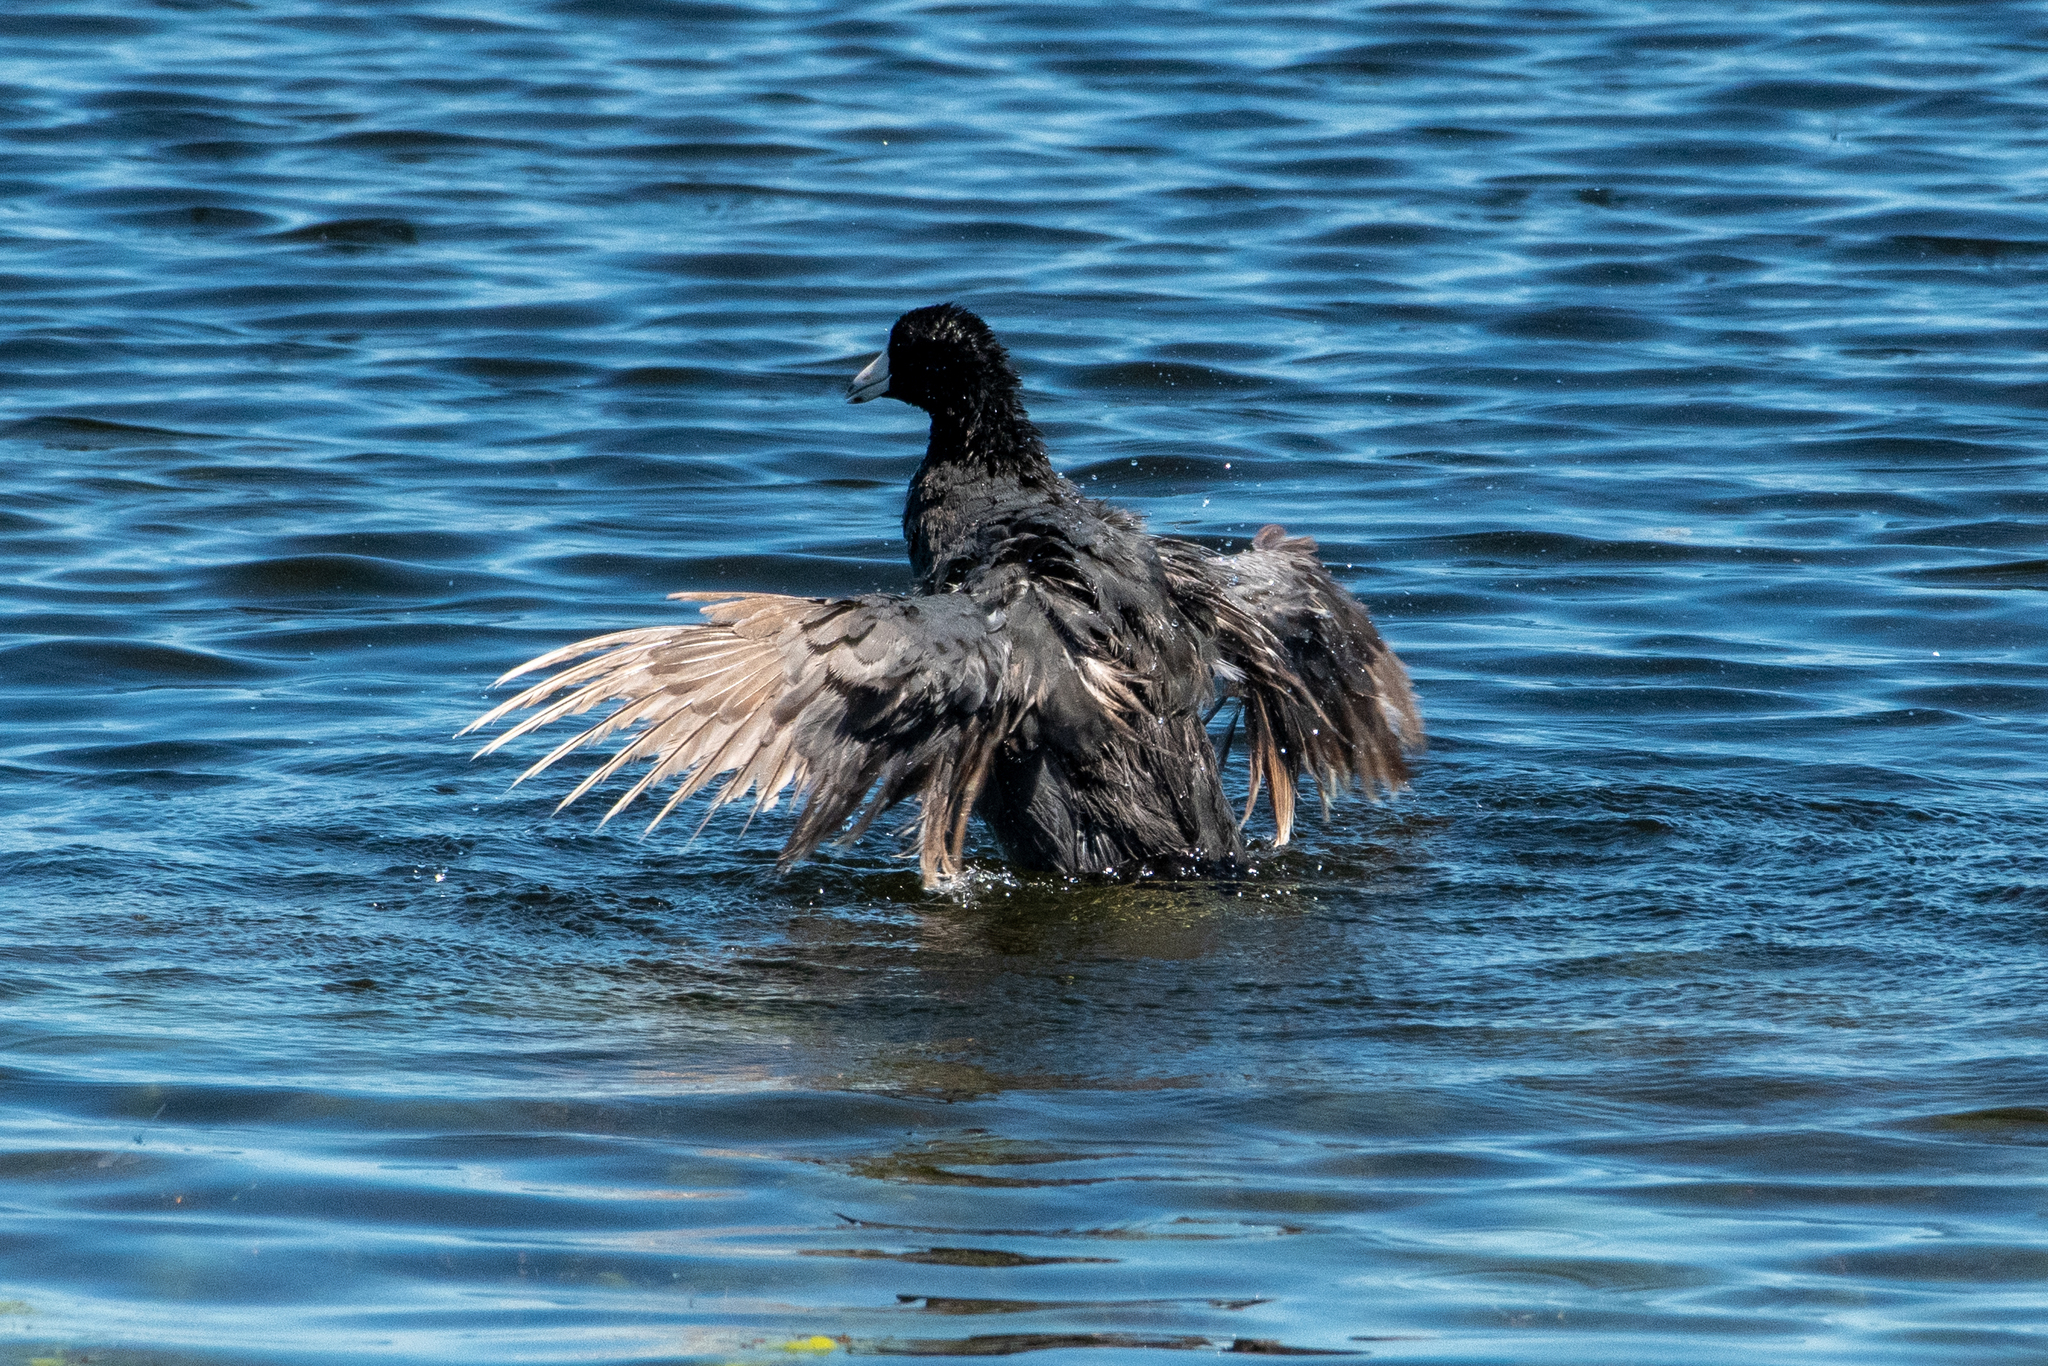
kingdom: Animalia
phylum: Chordata
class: Aves
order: Gruiformes
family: Rallidae
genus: Fulica
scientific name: Fulica americana
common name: American coot
